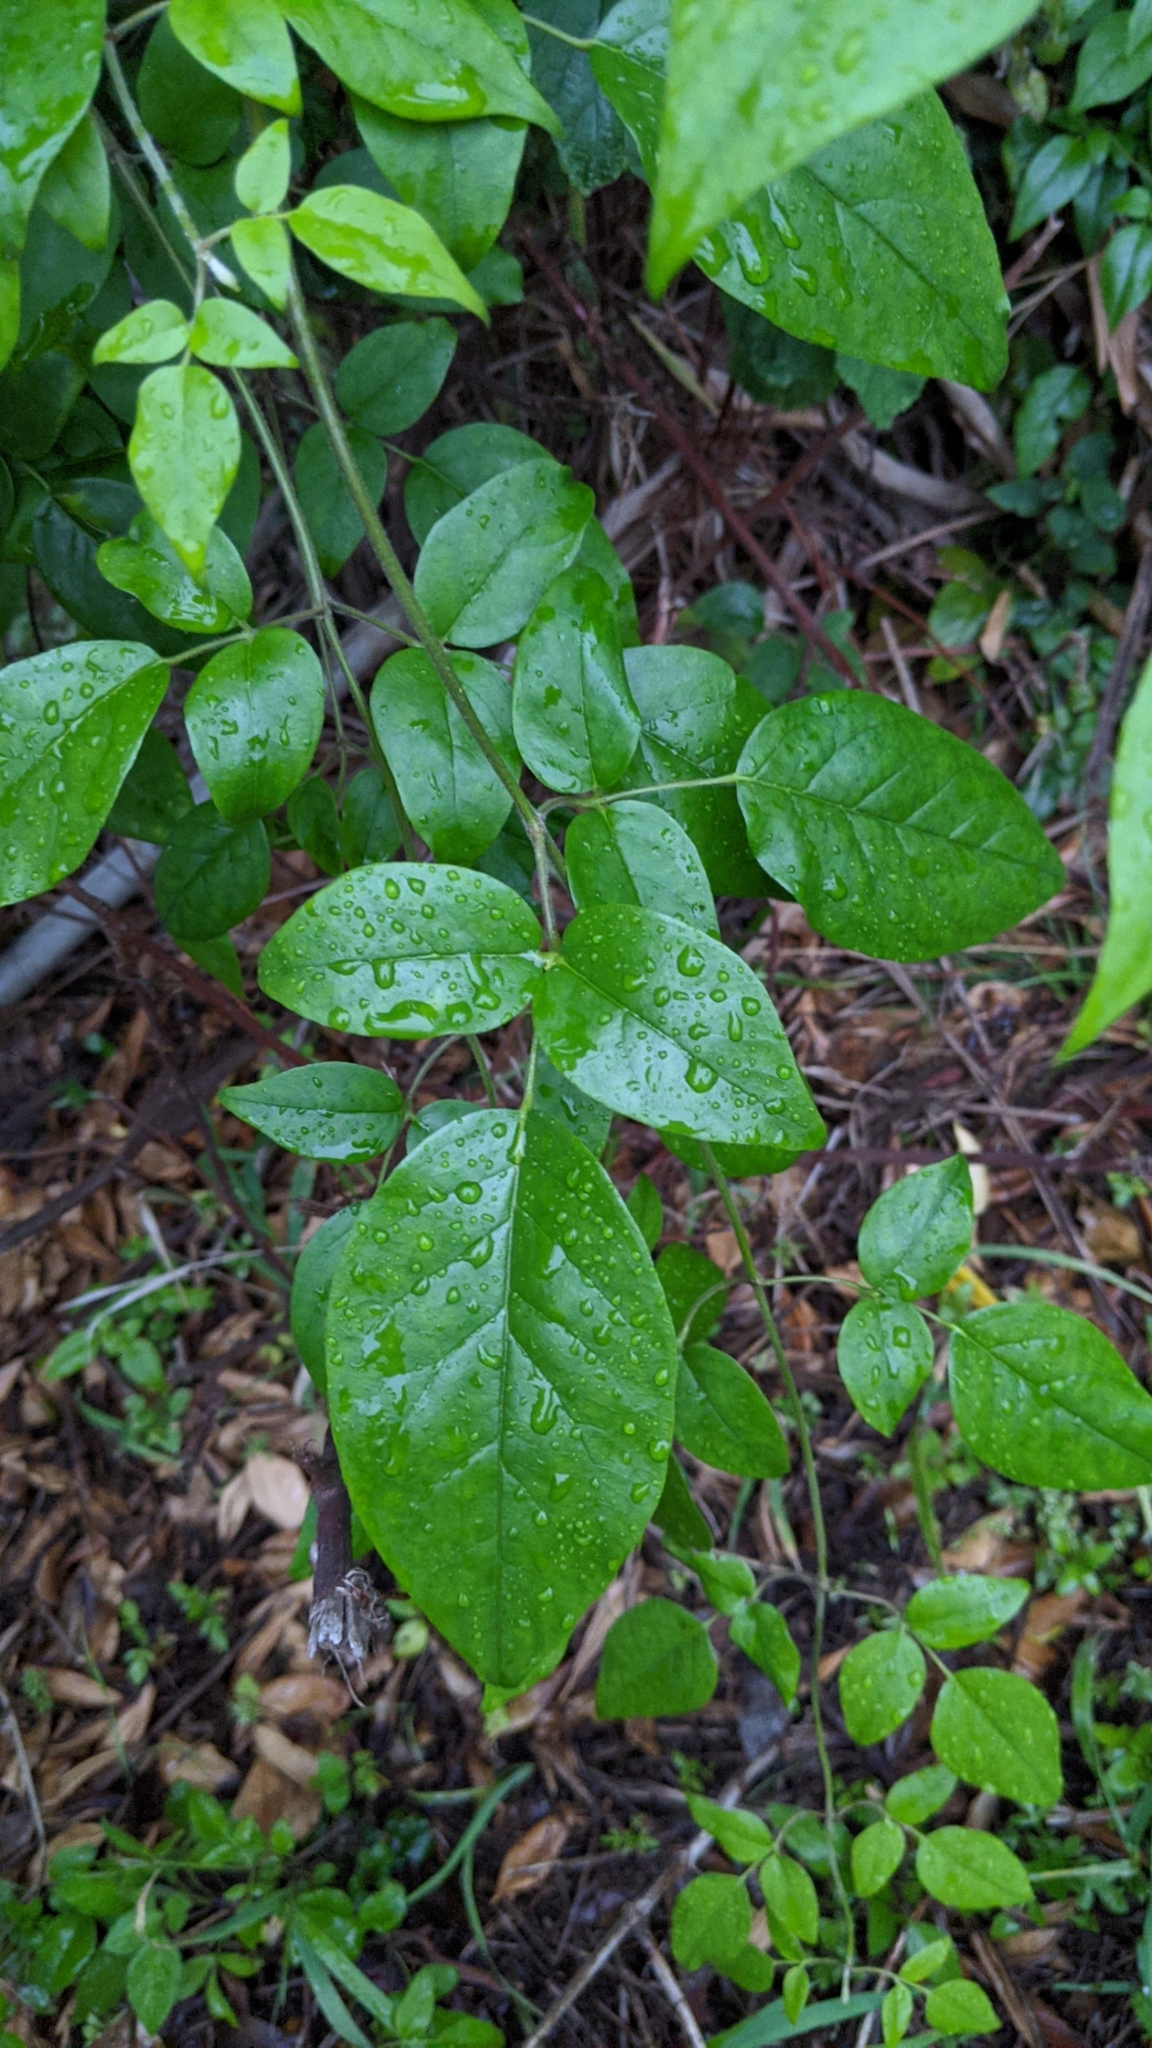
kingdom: Plantae
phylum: Tracheophyta
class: Magnoliopsida
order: Lamiales
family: Oleaceae
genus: Jasminum
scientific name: Jasminum sinense
